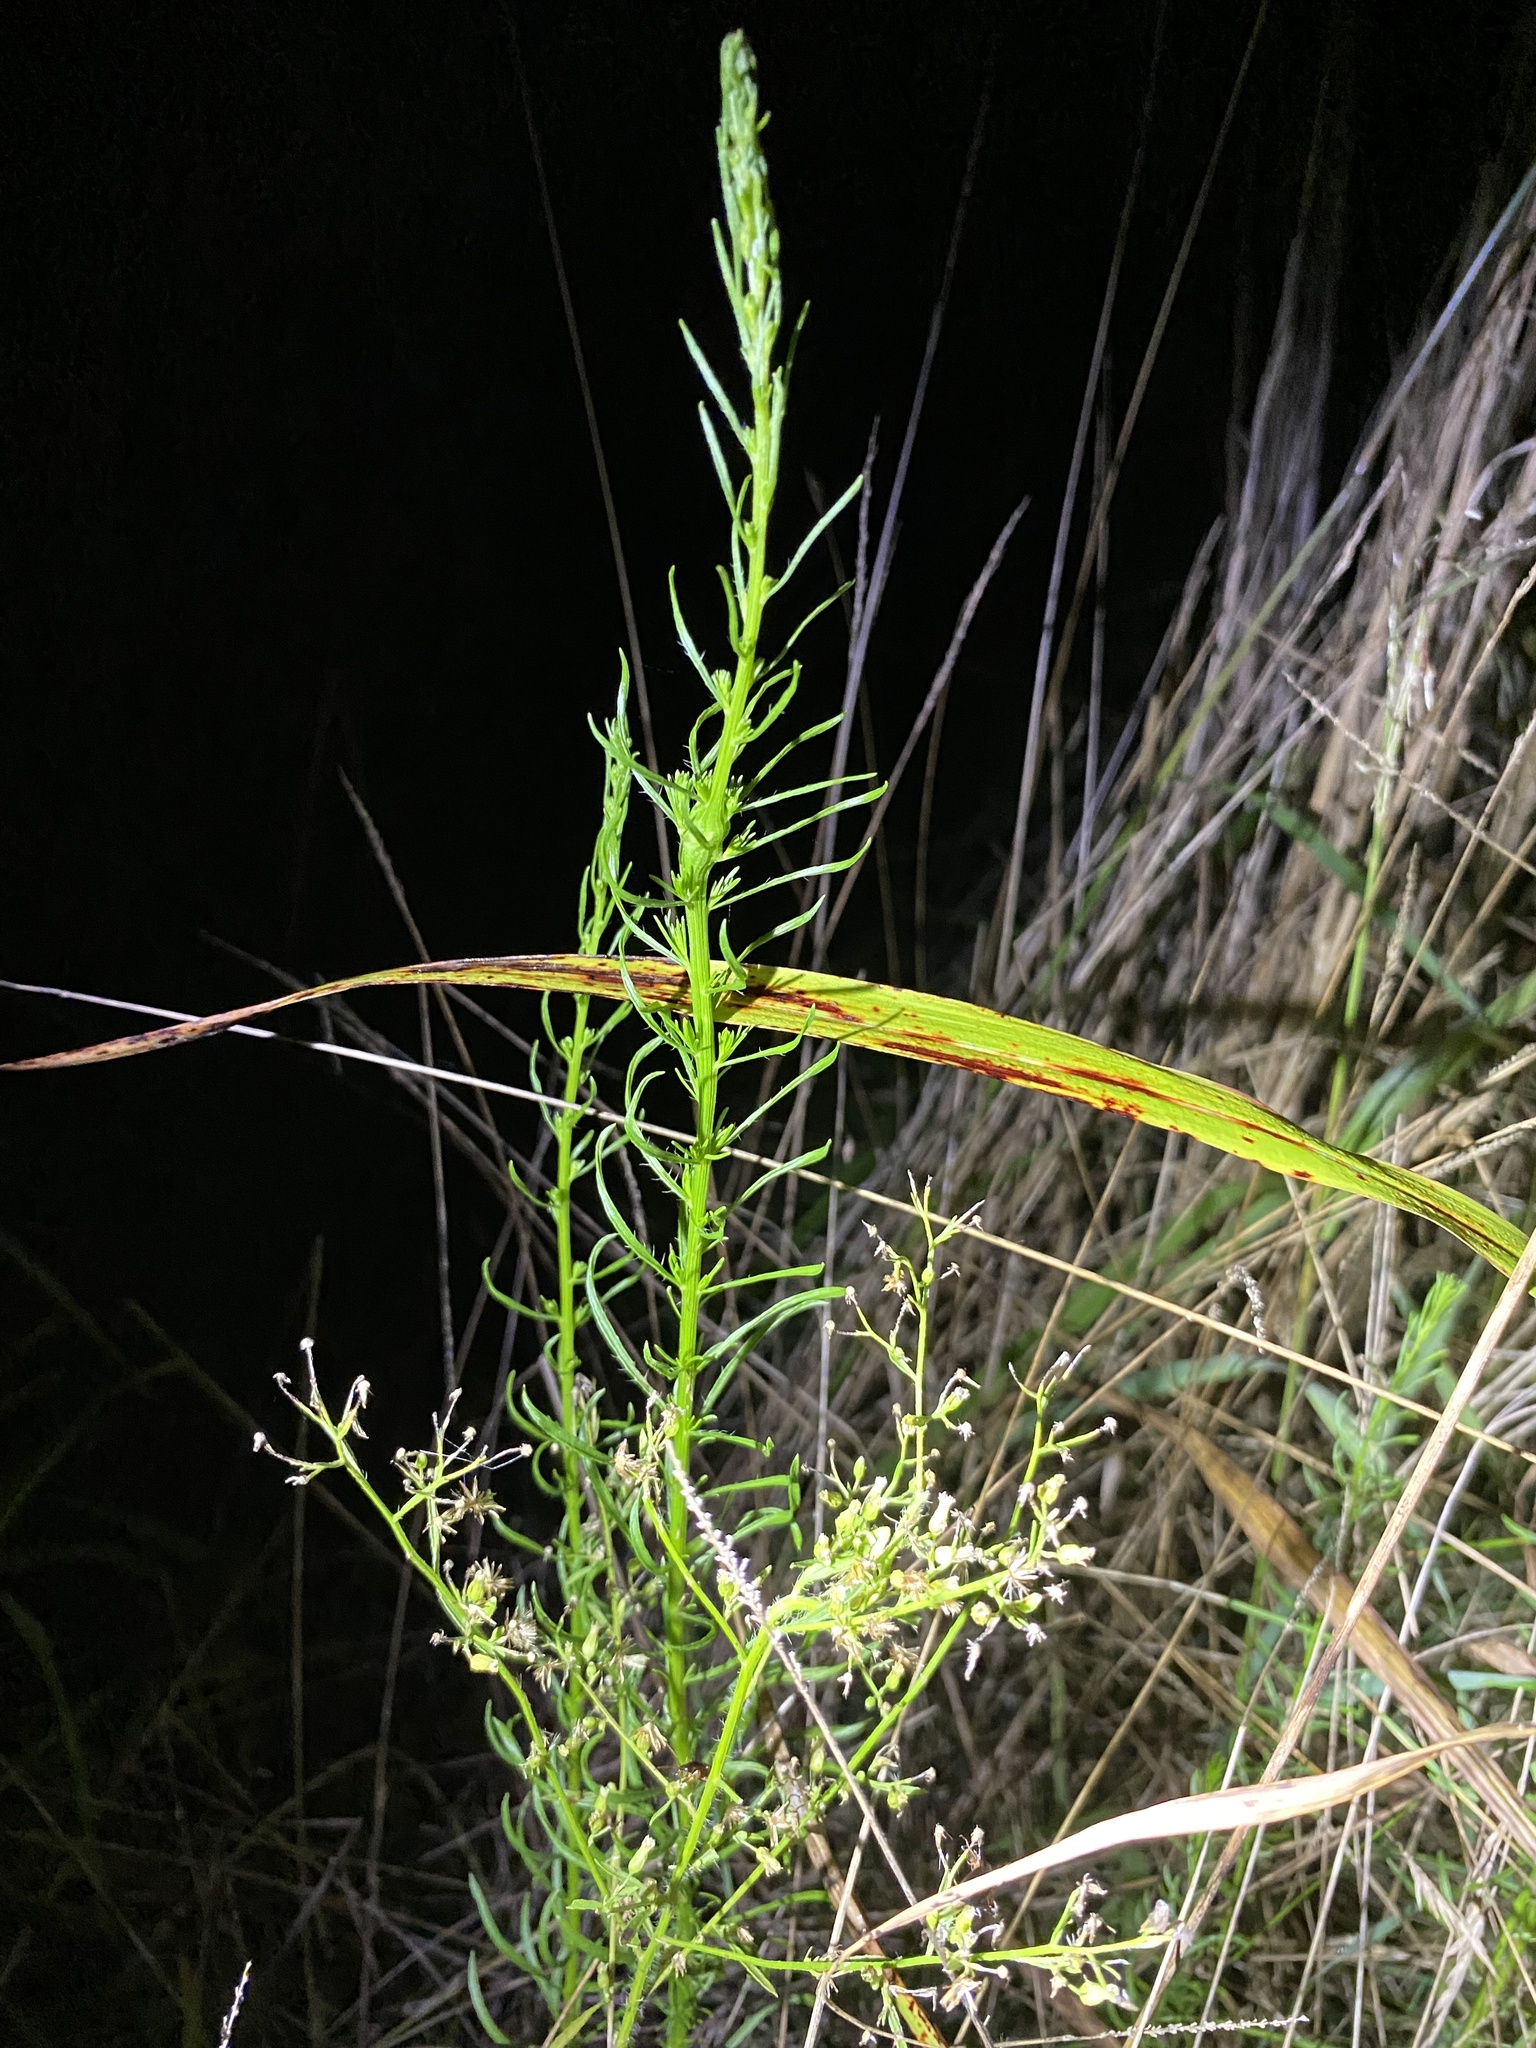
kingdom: Plantae
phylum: Tracheophyta
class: Magnoliopsida
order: Asterales
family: Asteraceae
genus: Erigeron
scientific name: Erigeron canadensis
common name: Canadian fleabane
